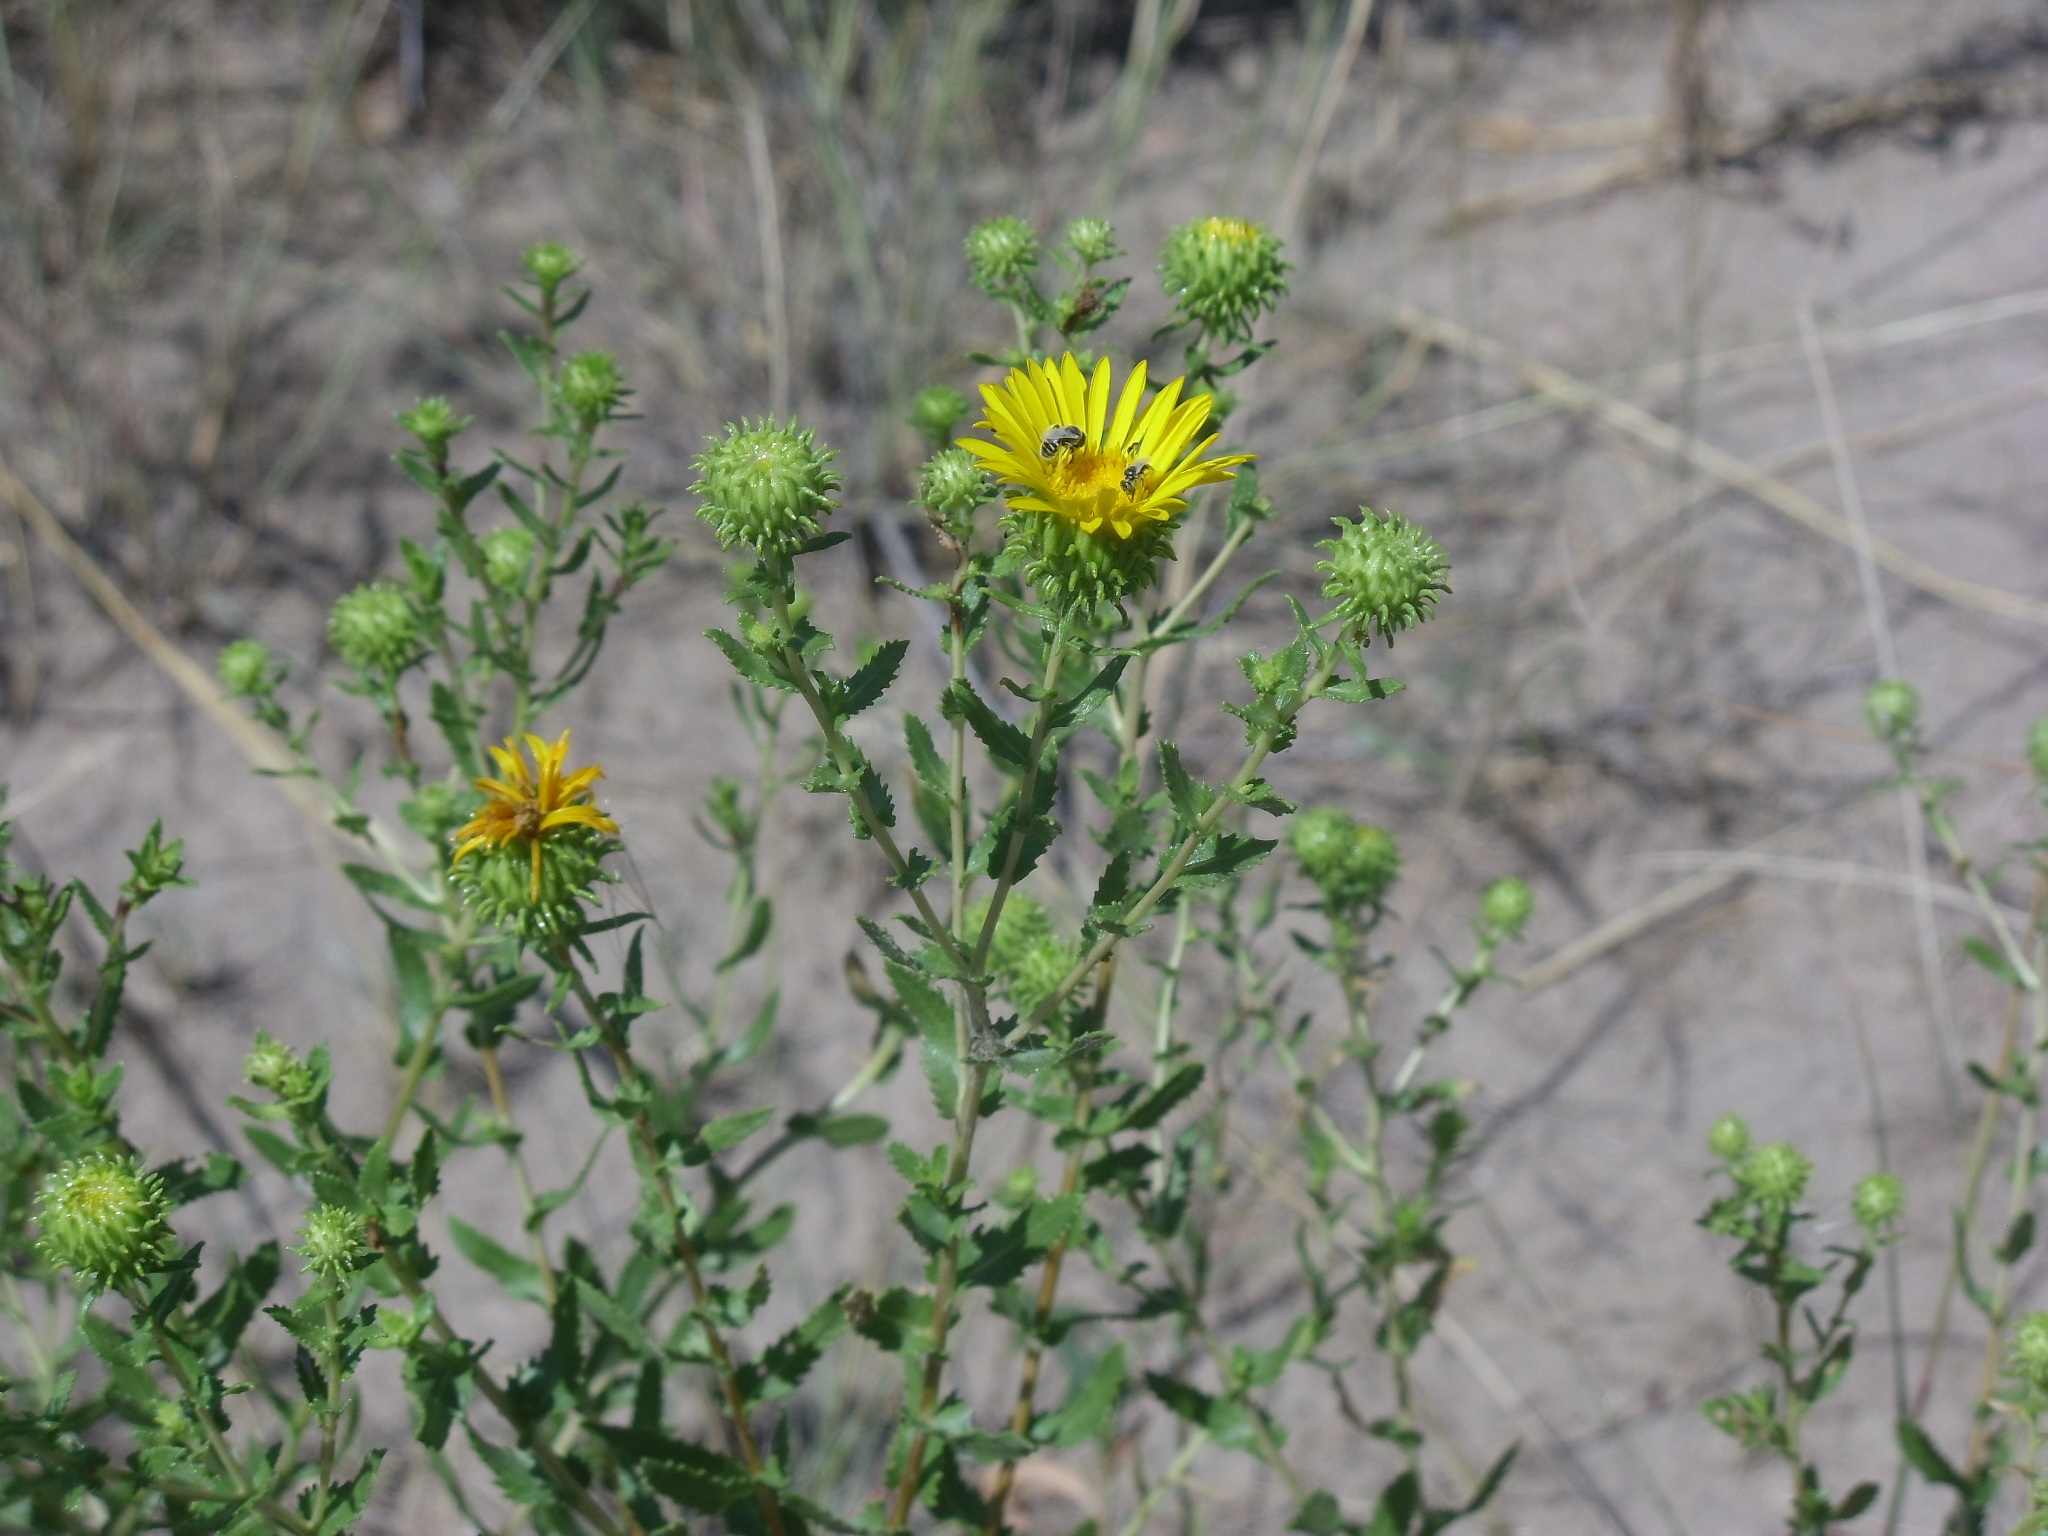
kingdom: Animalia
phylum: Arthropoda
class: Insecta
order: Hymenoptera
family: Andrenidae
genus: Perdita
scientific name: Perdita
